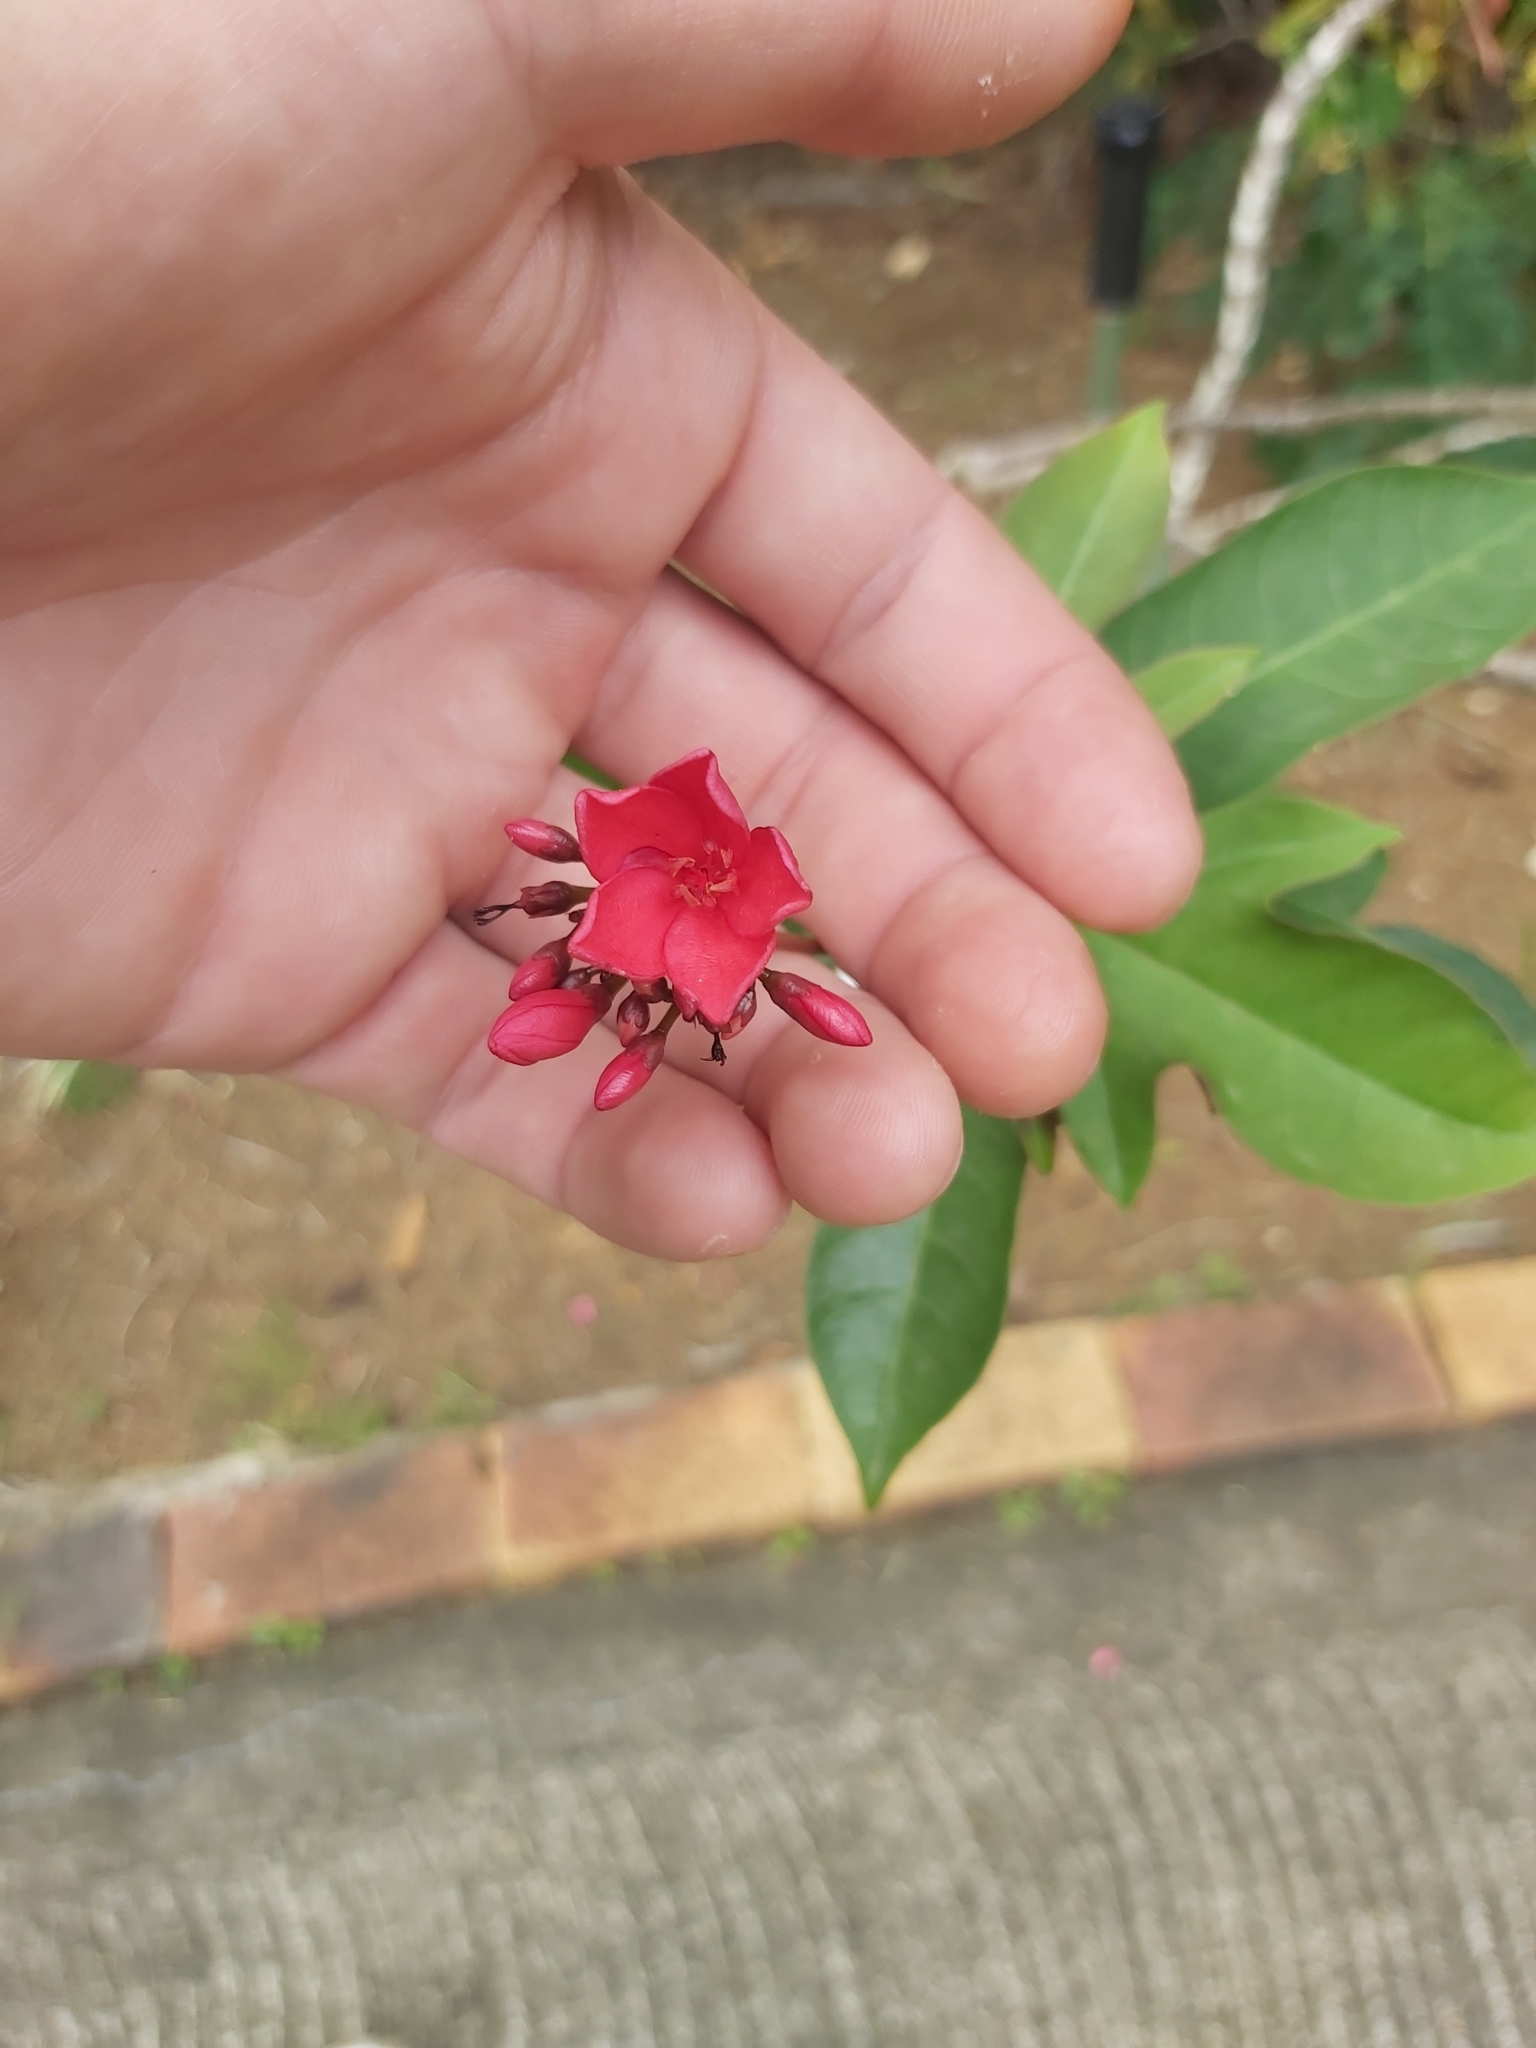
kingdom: Plantae
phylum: Tracheophyta
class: Magnoliopsida
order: Malpighiales
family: Euphorbiaceae
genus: Jatropha
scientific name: Jatropha integerrima
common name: Peregrina
